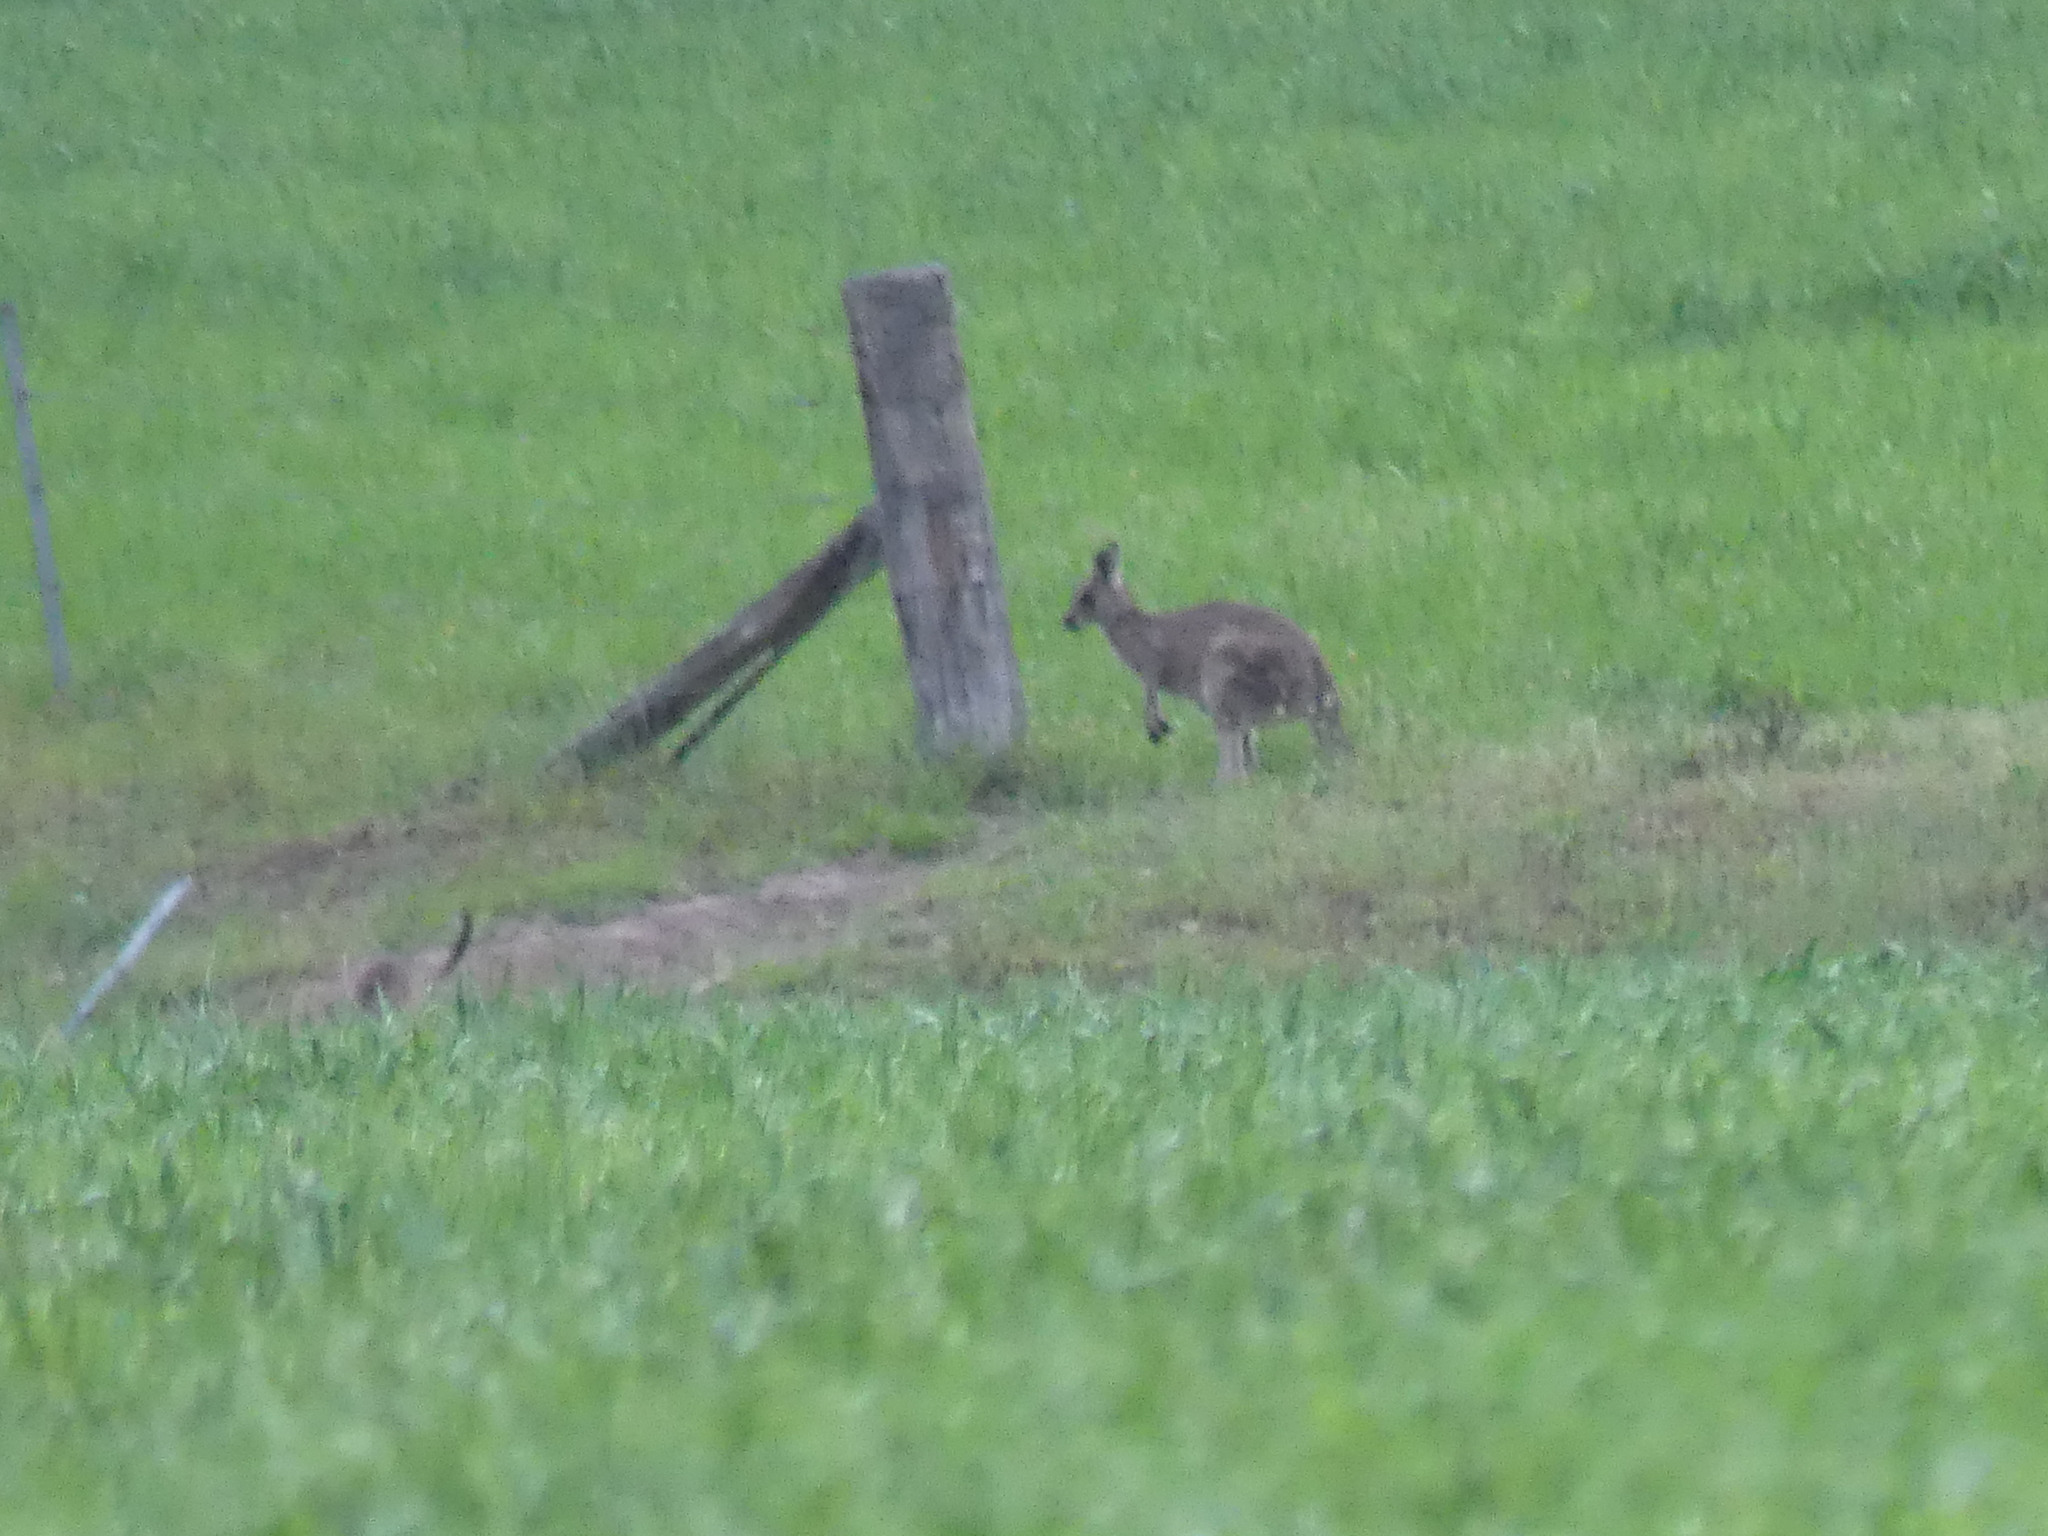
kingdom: Animalia
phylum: Chordata
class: Mammalia
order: Diprotodontia
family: Macropodidae
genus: Macropus
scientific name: Macropus giganteus
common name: Eastern grey kangaroo
